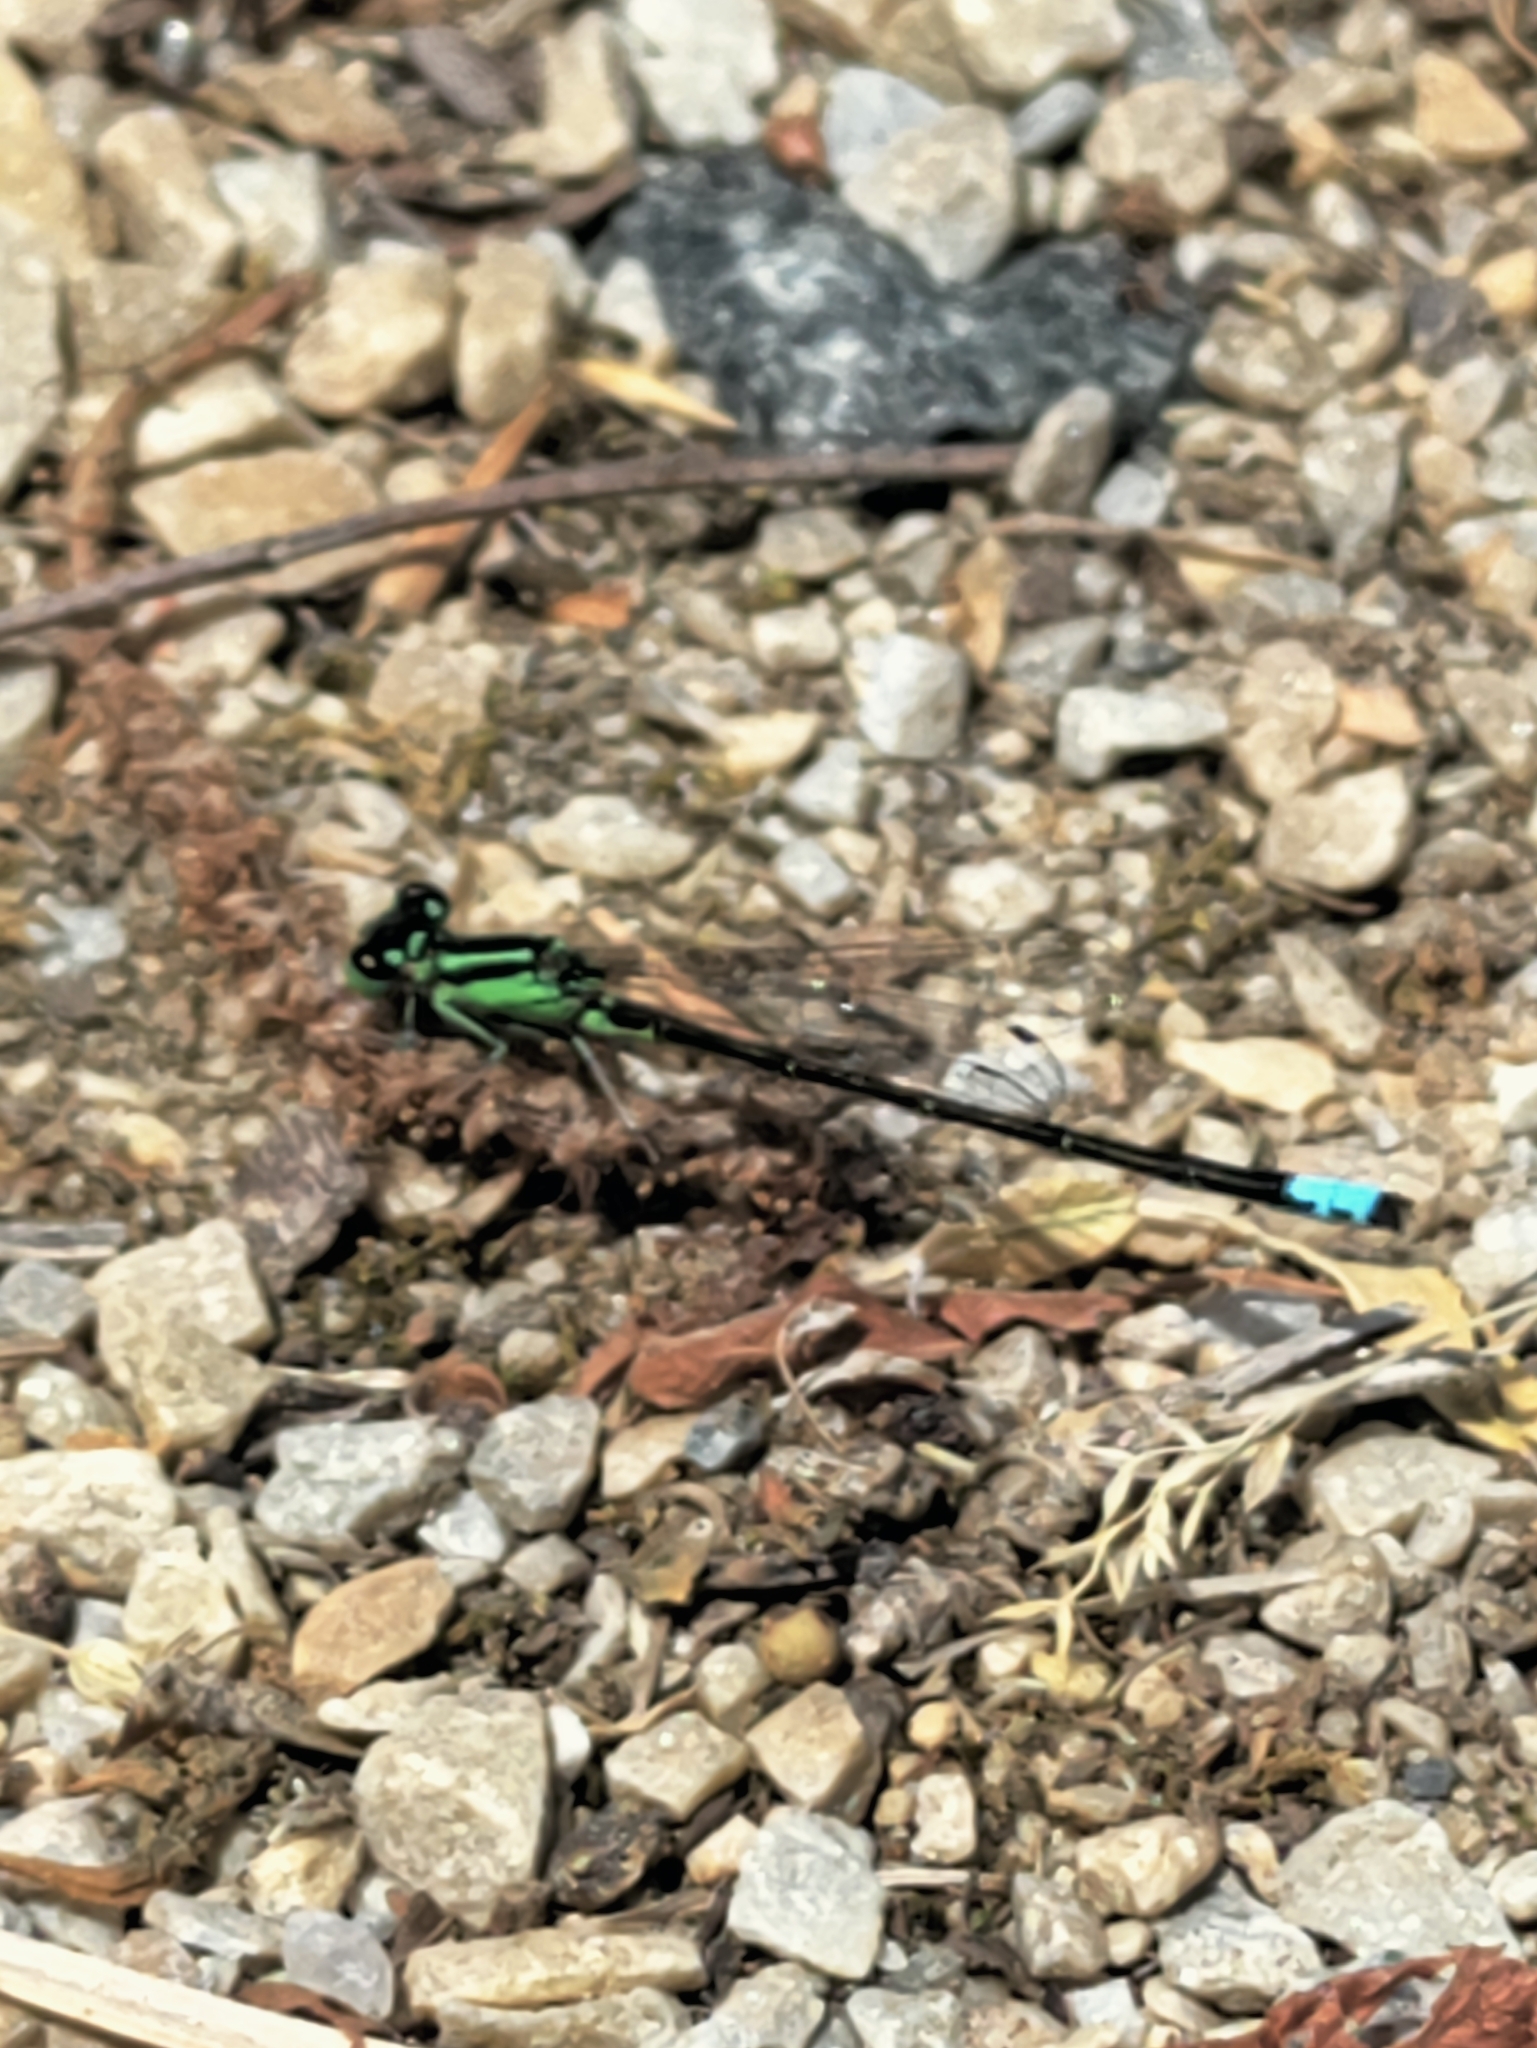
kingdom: Animalia
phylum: Arthropoda
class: Insecta
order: Odonata
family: Coenagrionidae
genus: Ischnura
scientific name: Ischnura verticalis
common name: Eastern forktail
